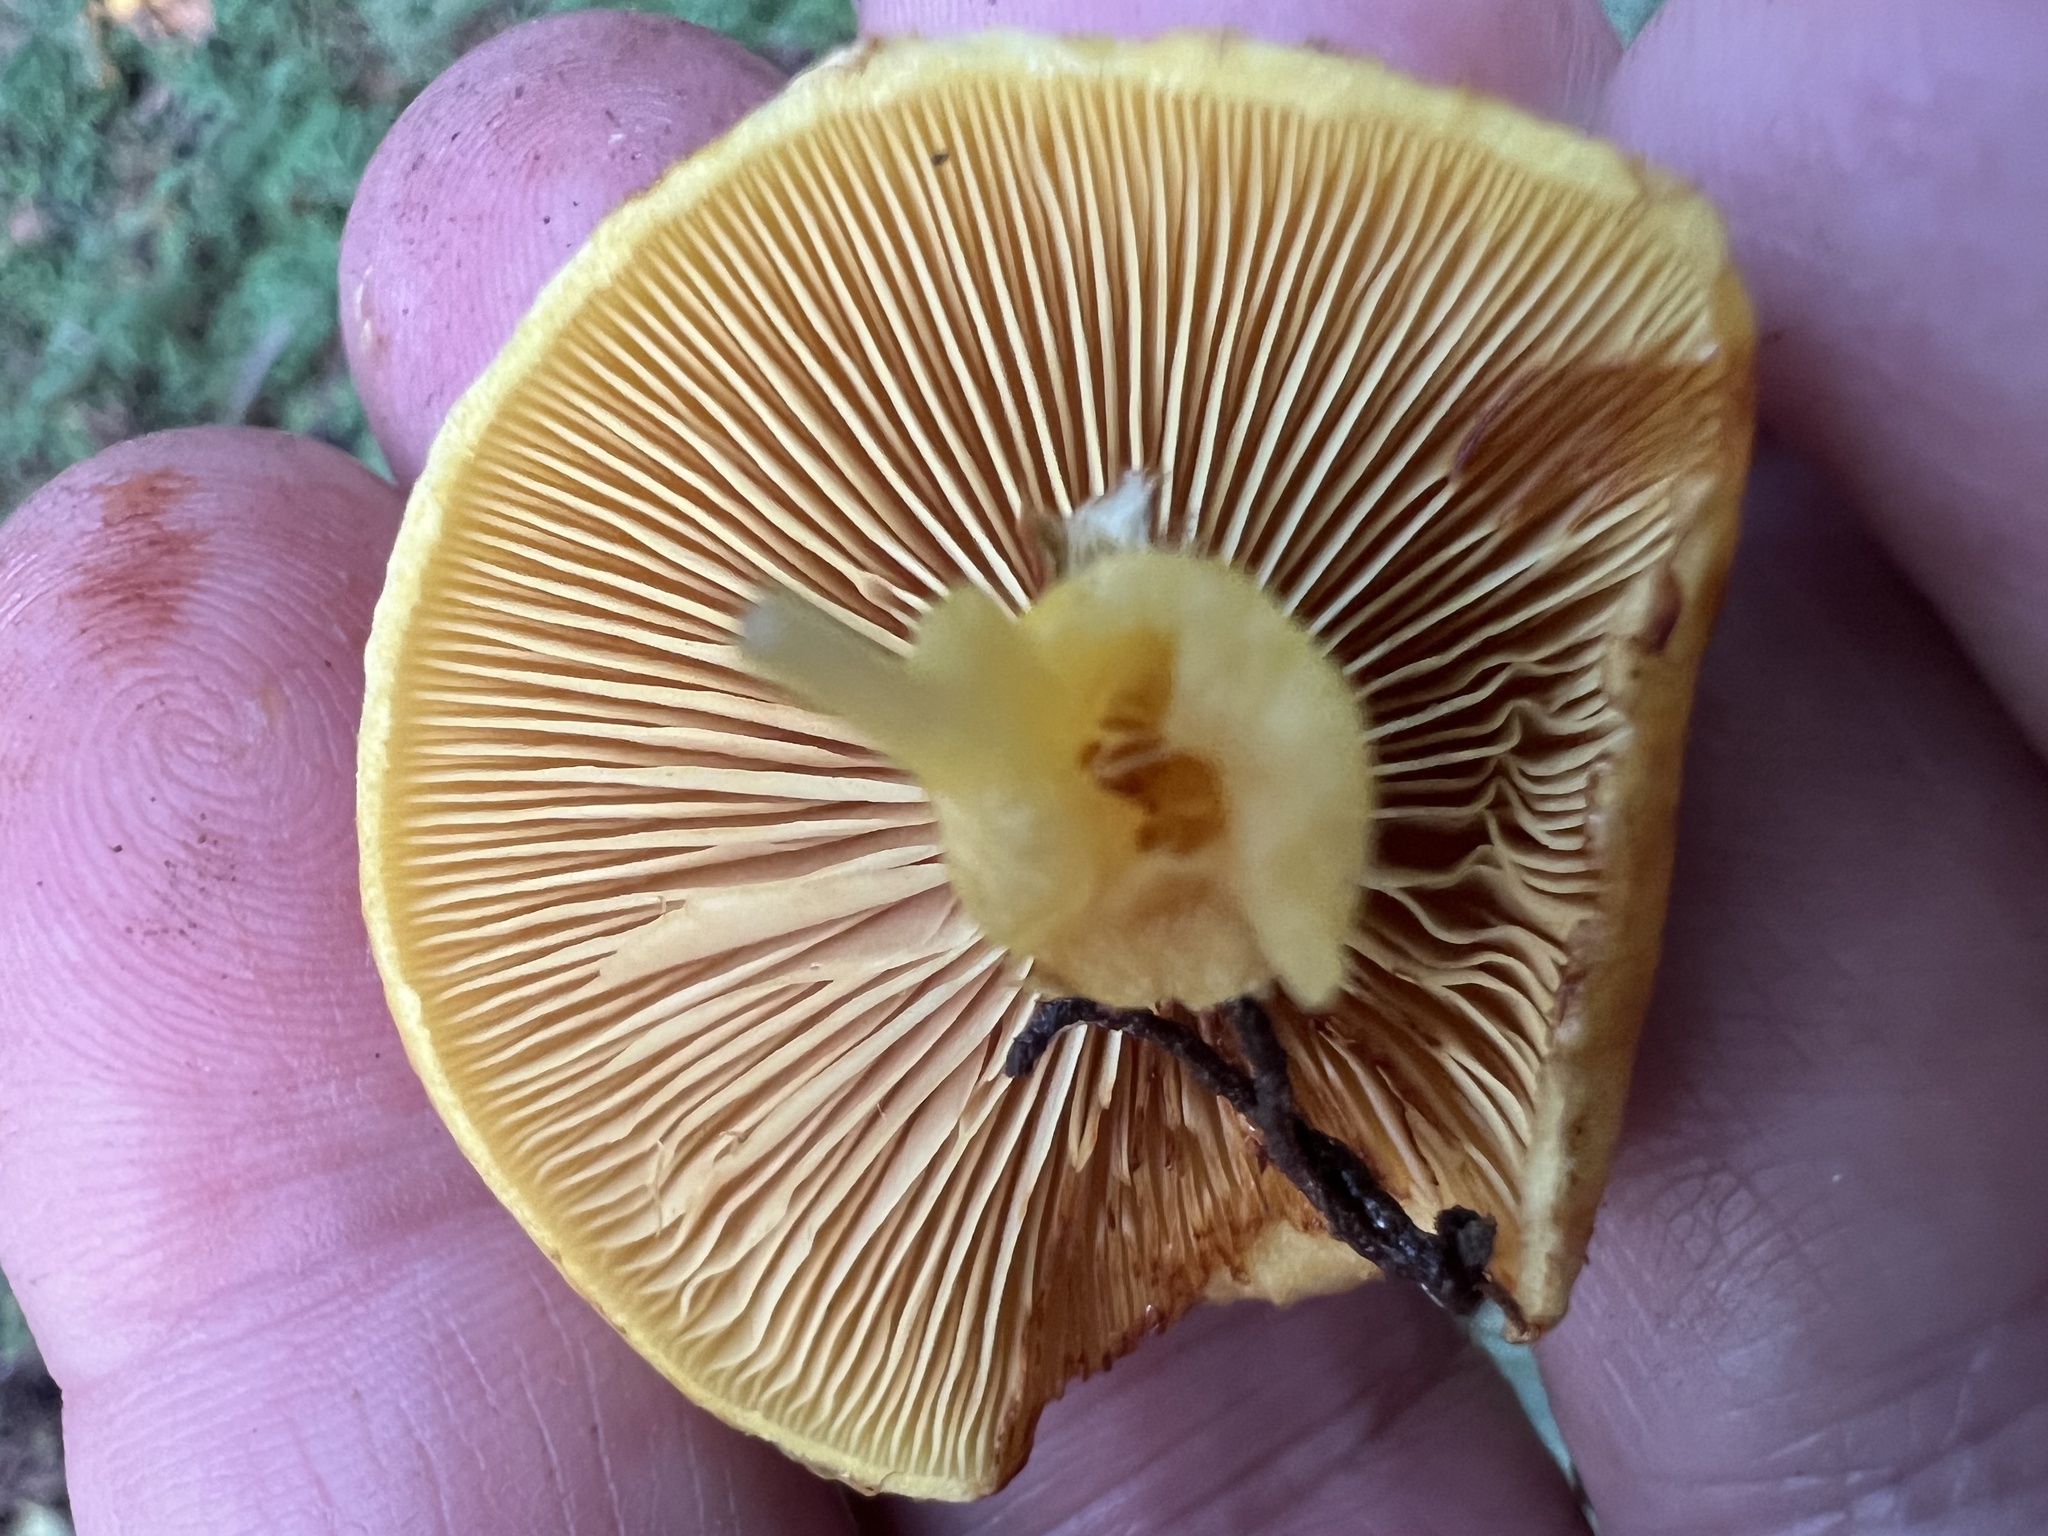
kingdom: Fungi
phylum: Basidiomycota
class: Agaricomycetes
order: Agaricales
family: Hymenogastraceae
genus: Gymnopilus
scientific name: Gymnopilus luteus
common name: Yellow gymnopilus
